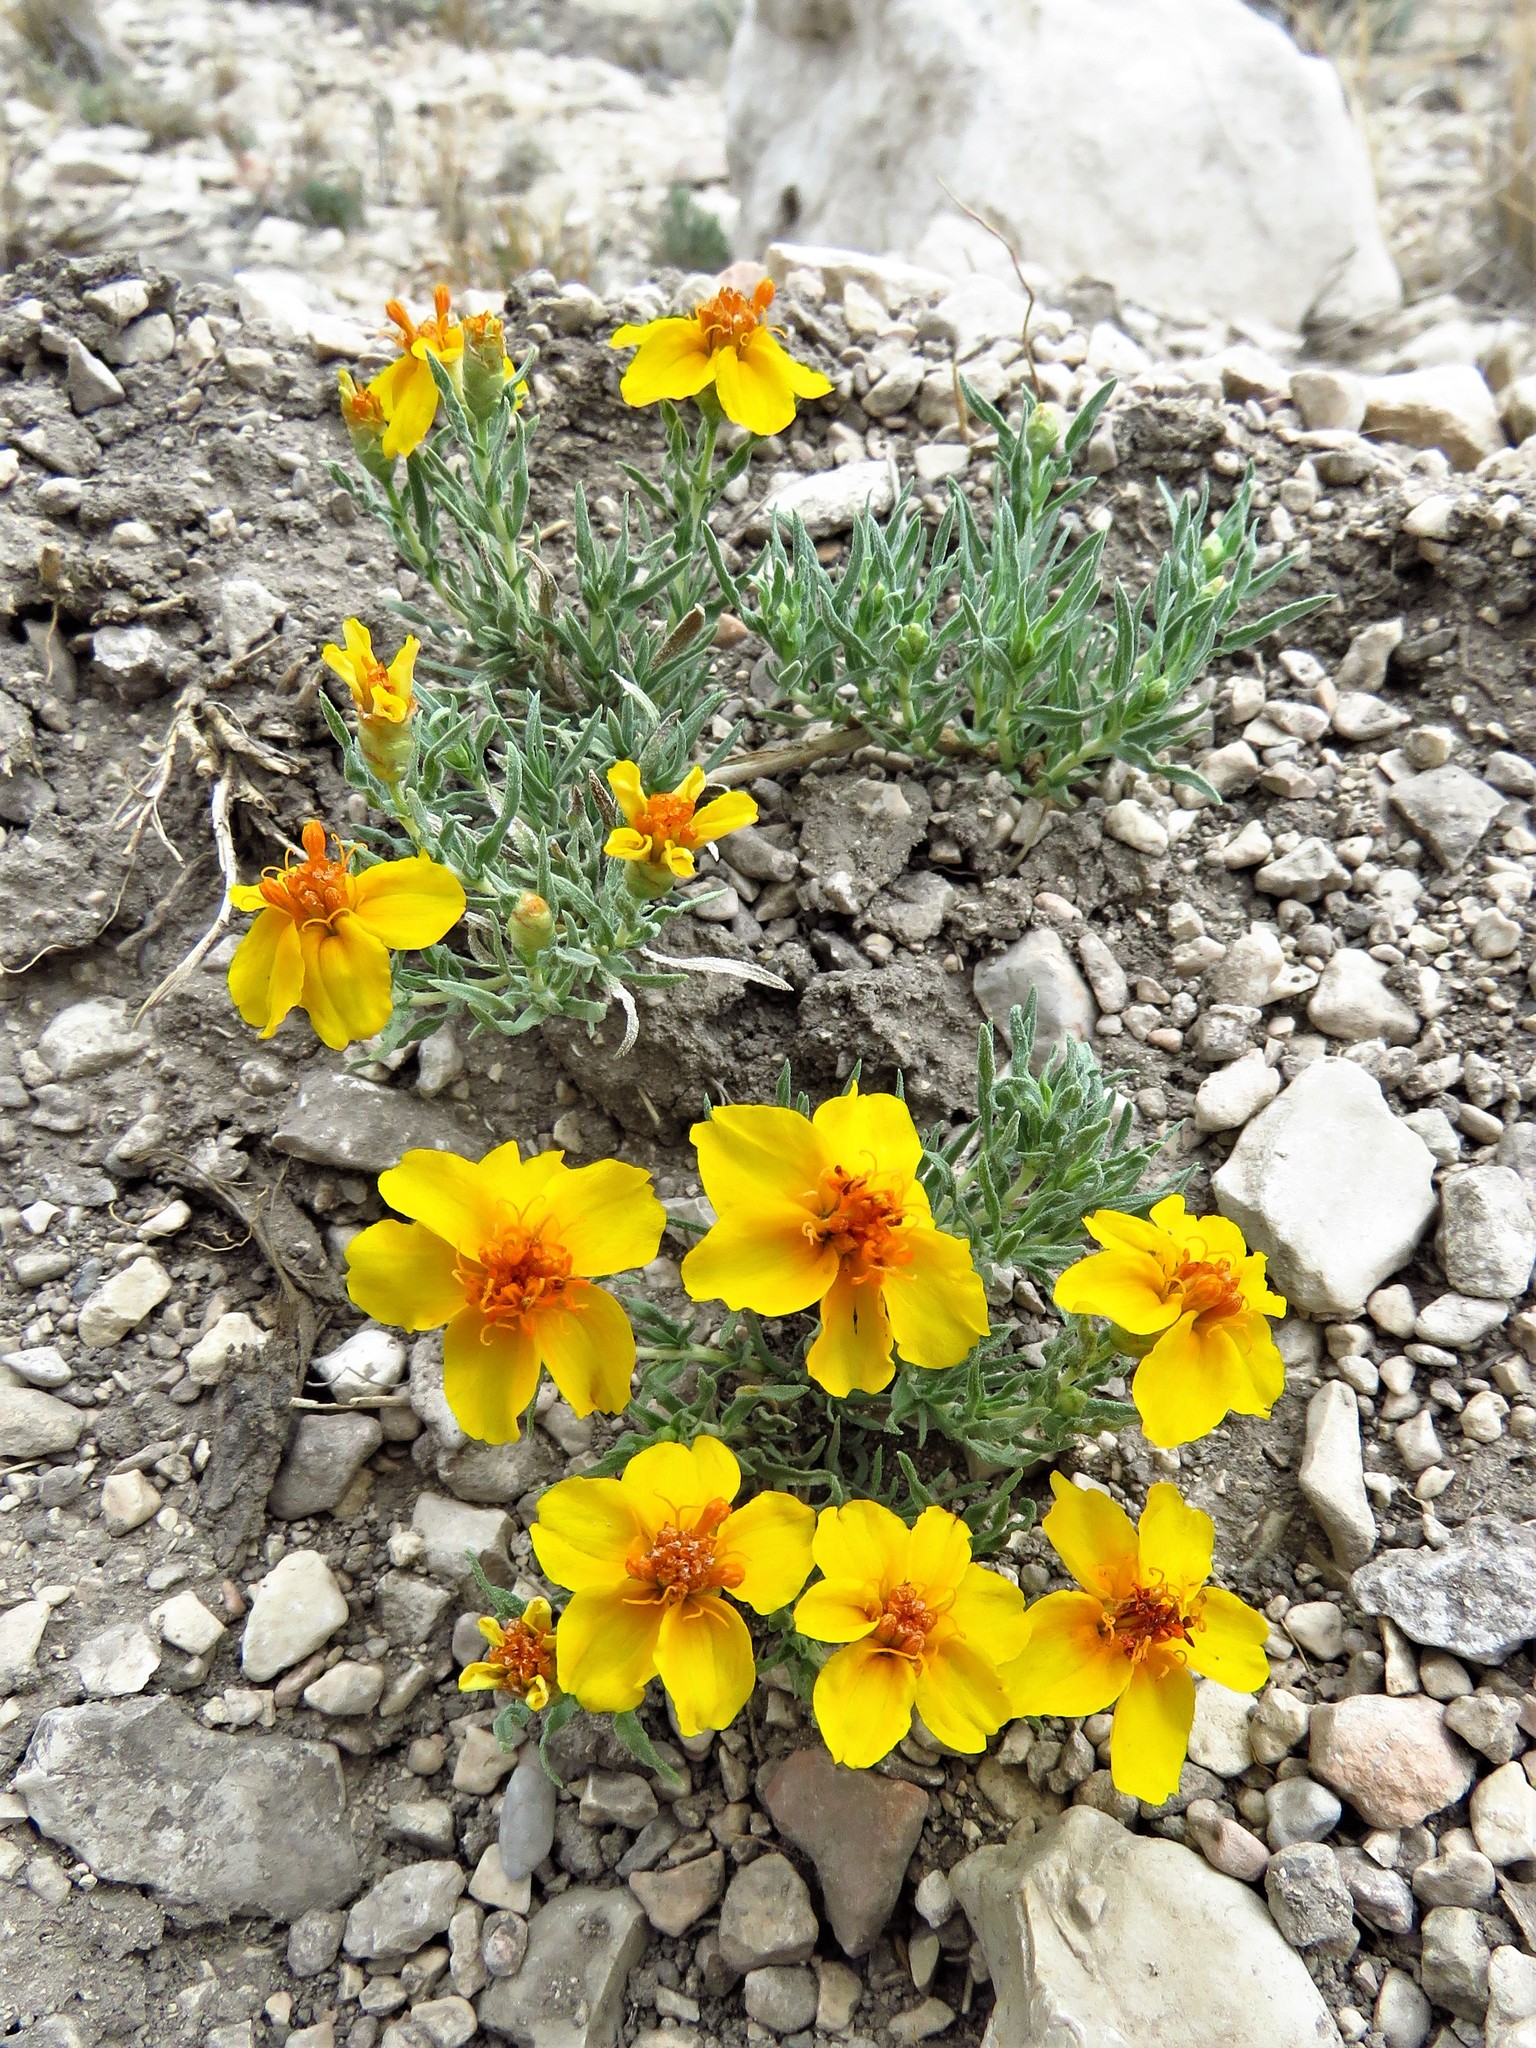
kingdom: Plantae
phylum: Tracheophyta
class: Magnoliopsida
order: Asterales
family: Asteraceae
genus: Zinnia
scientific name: Zinnia grandiflora
